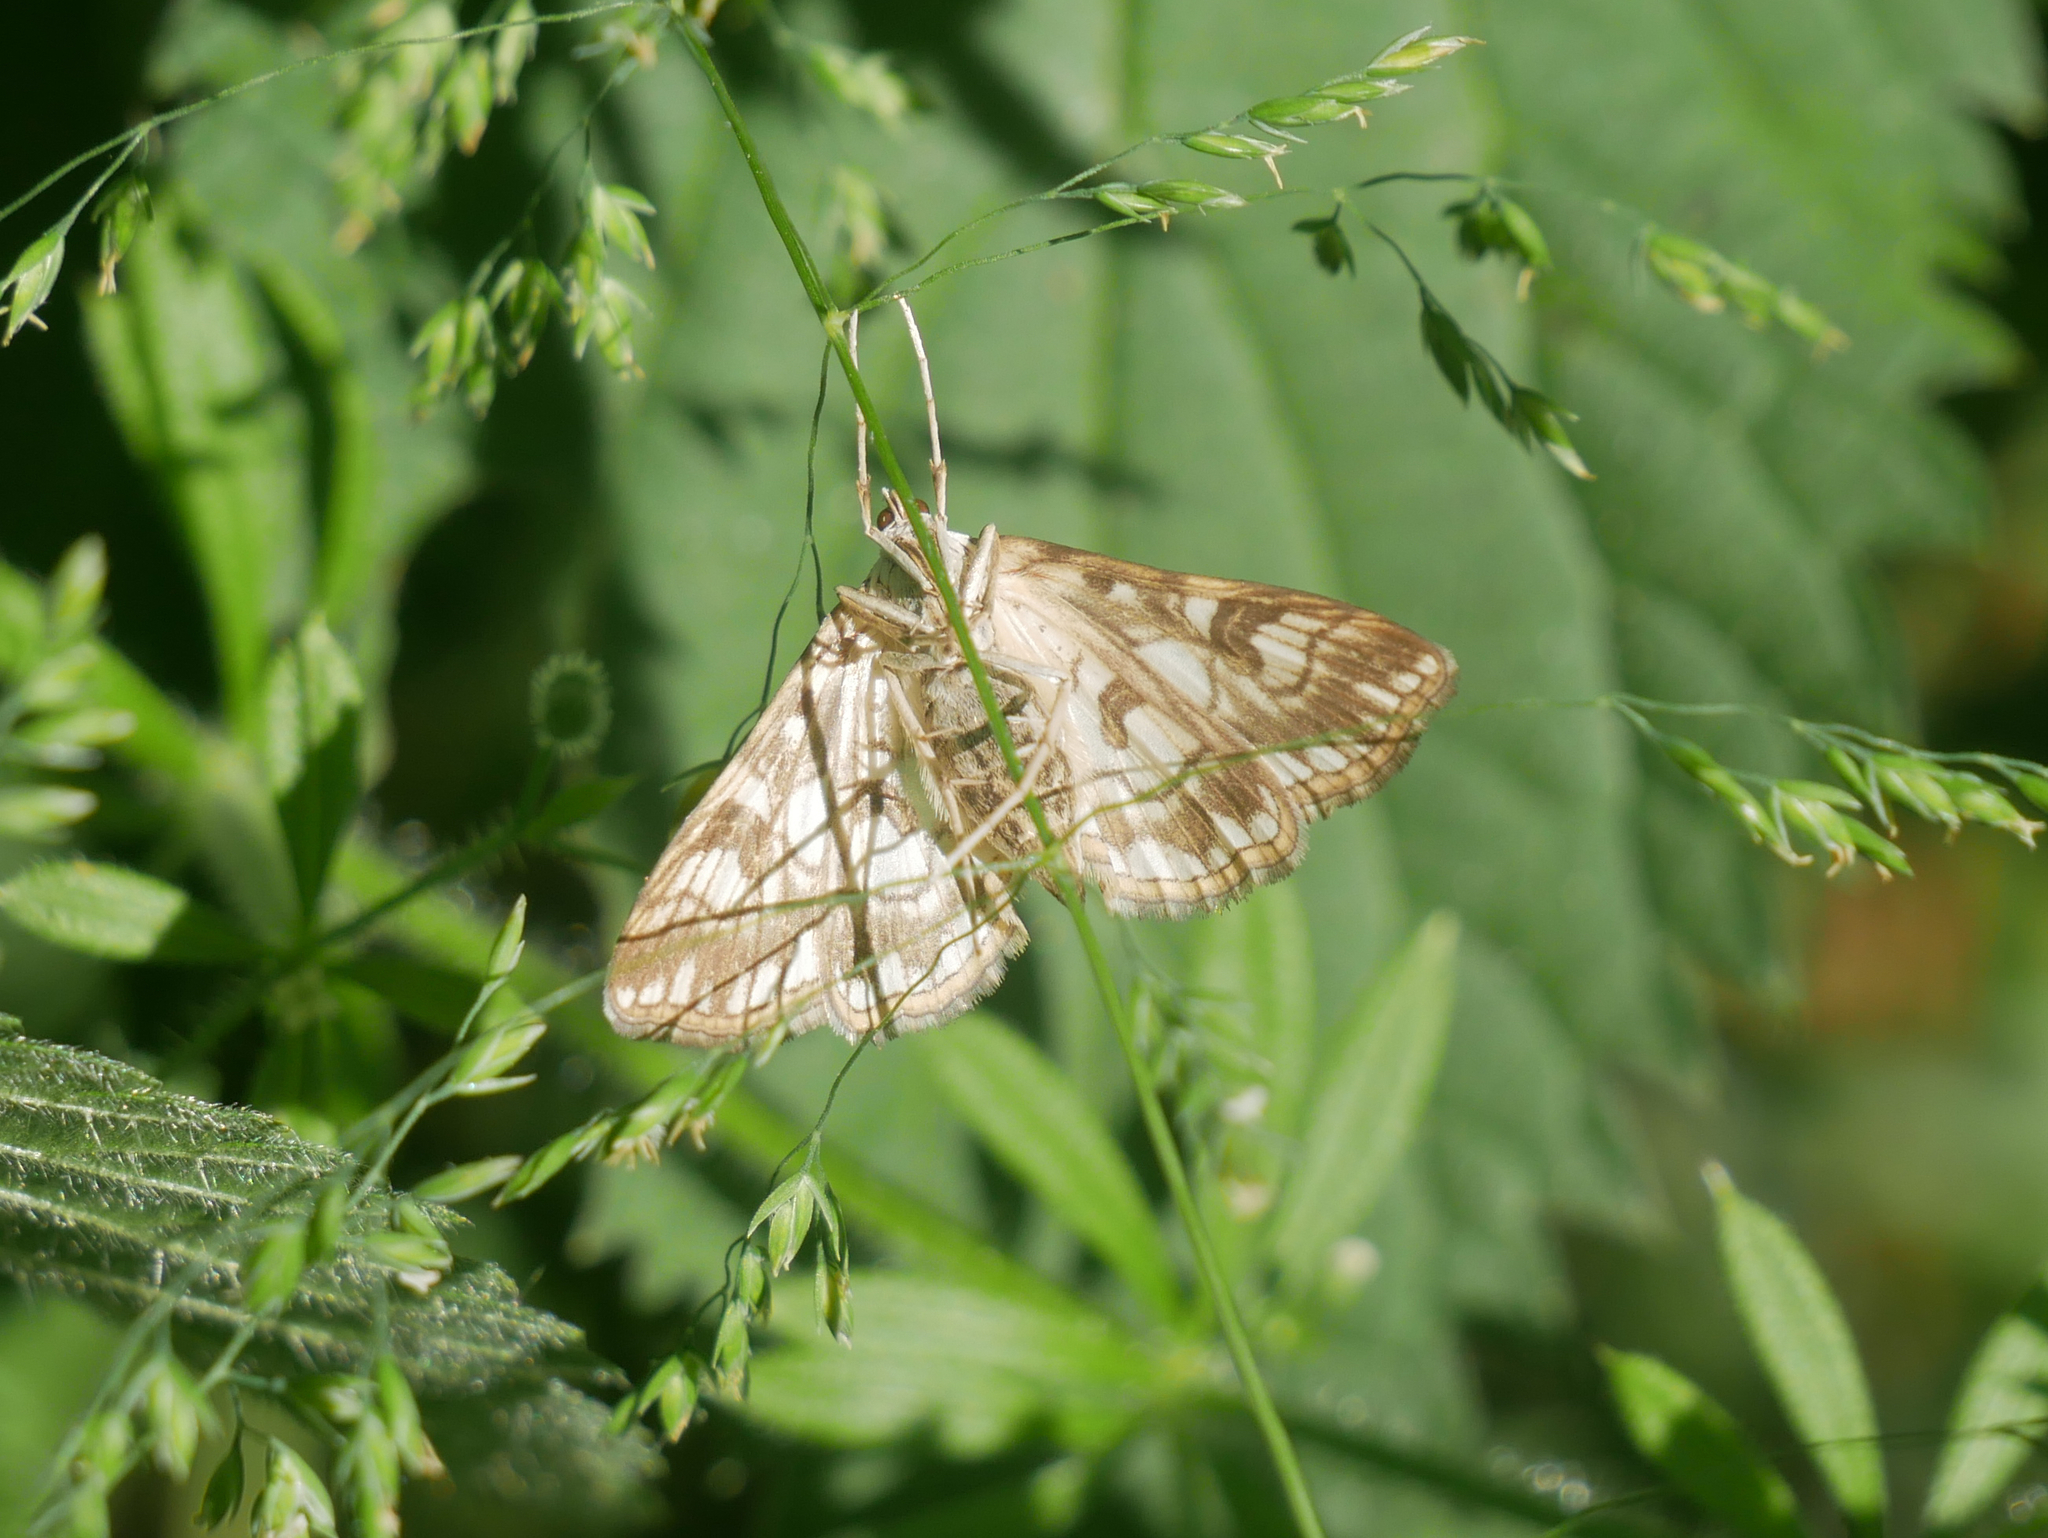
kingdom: Animalia
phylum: Arthropoda
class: Insecta
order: Lepidoptera
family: Crambidae
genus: Elophila
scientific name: Elophila nymphaeata
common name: Brown china-mark
